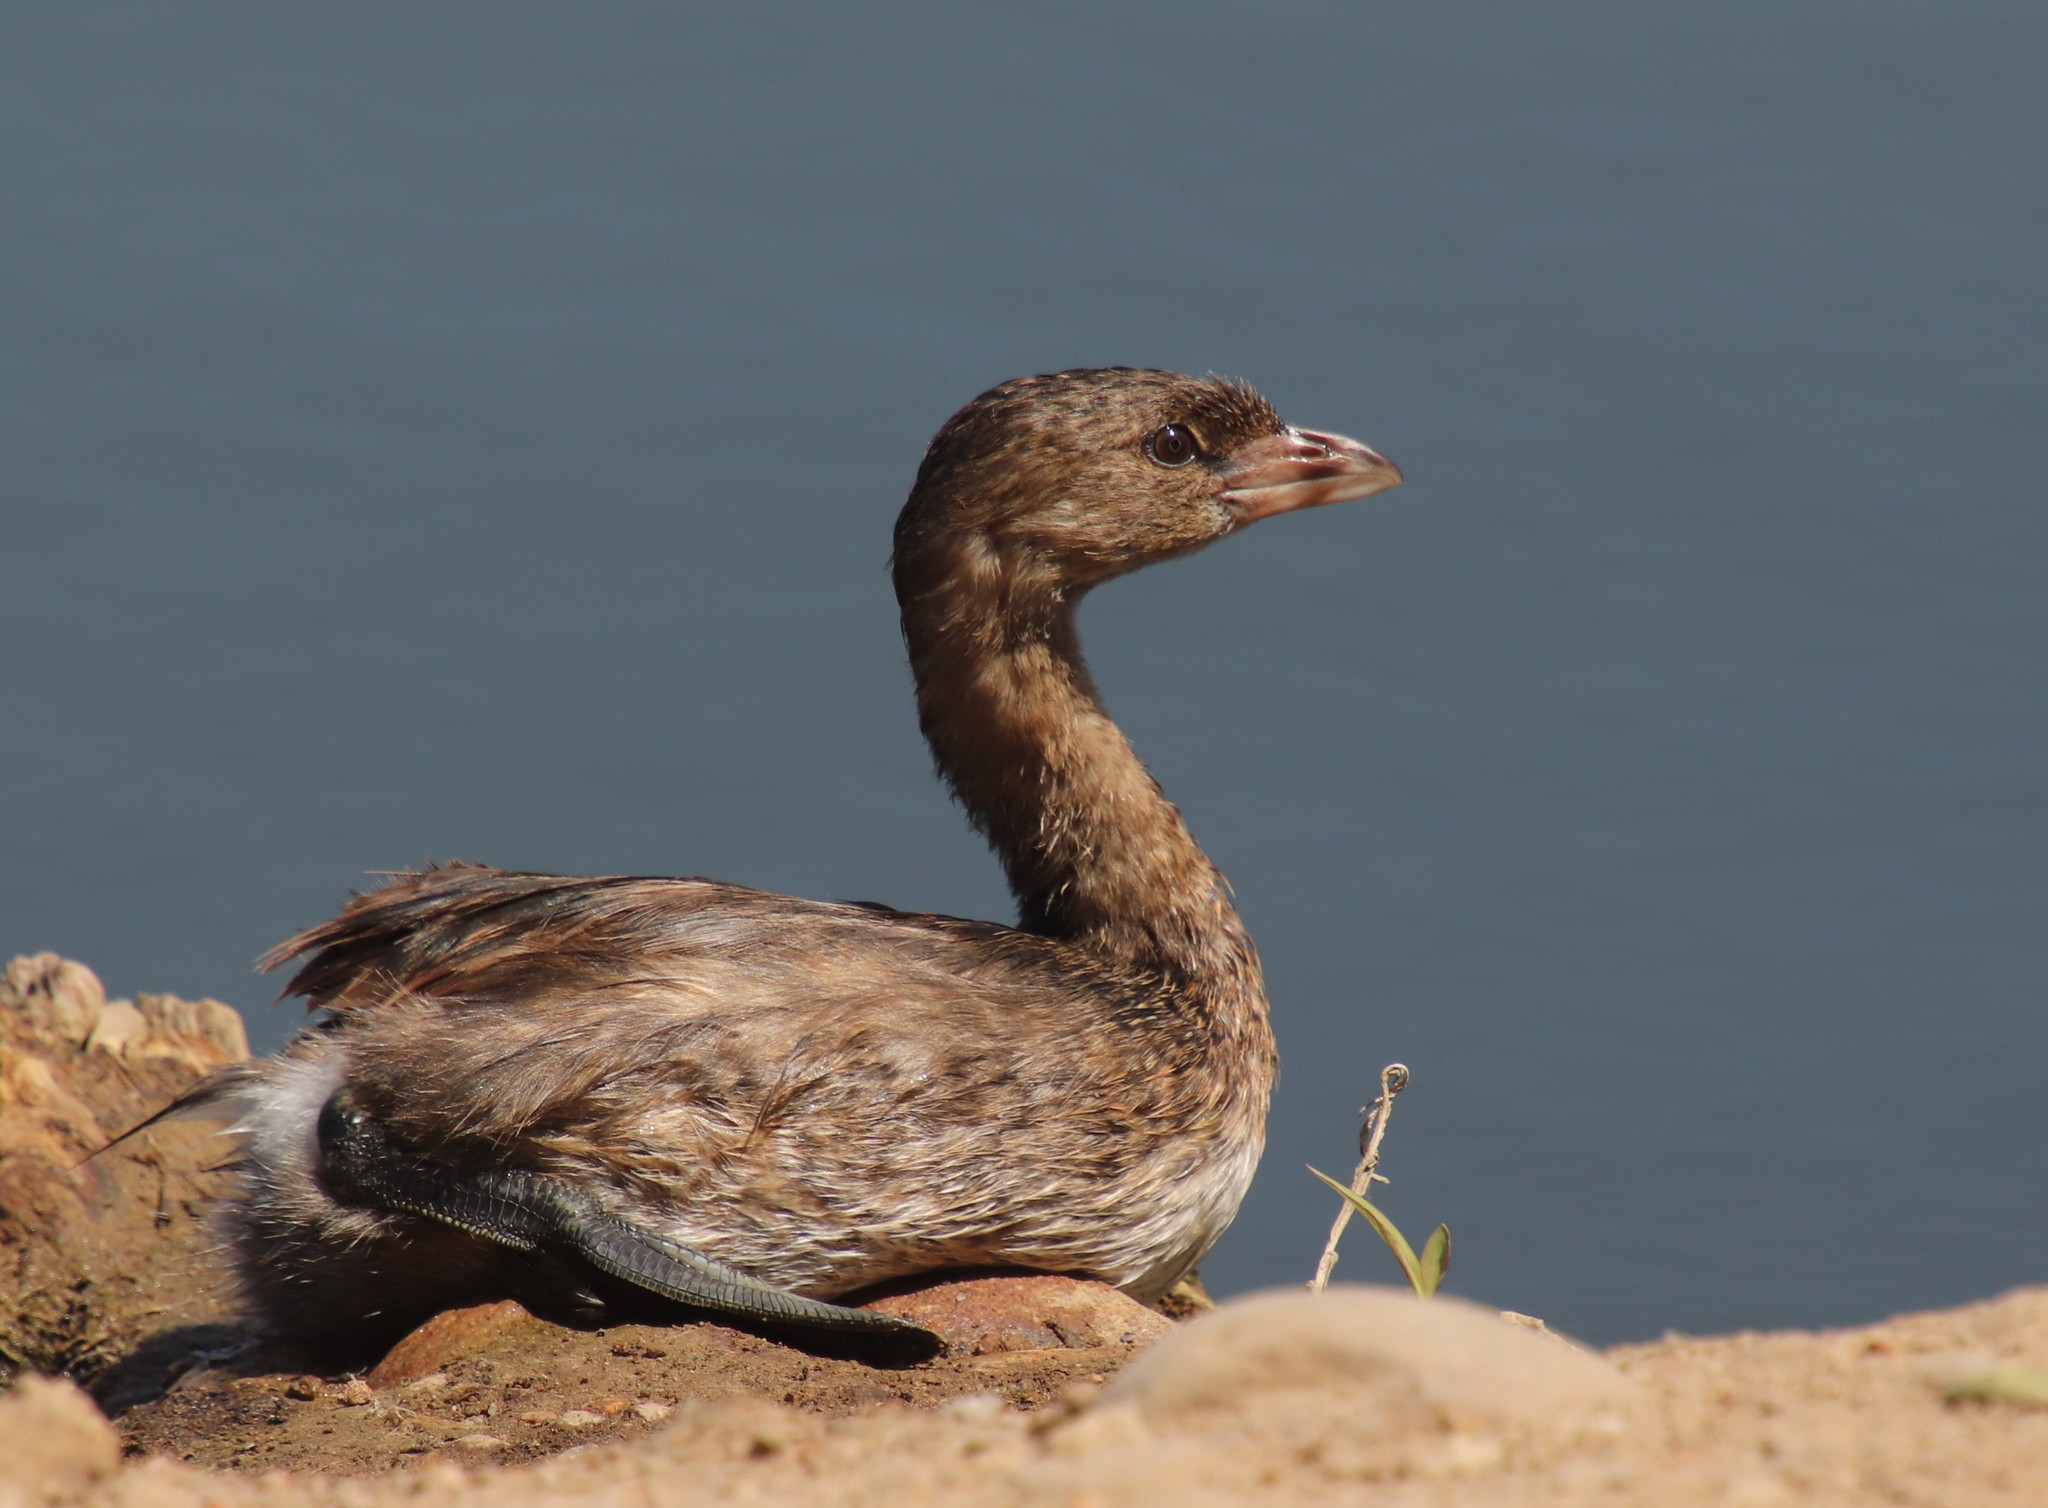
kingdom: Animalia
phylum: Chordata
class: Aves
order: Podicipediformes
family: Podicipedidae
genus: Podilymbus
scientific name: Podilymbus podiceps
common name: Pied-billed grebe
